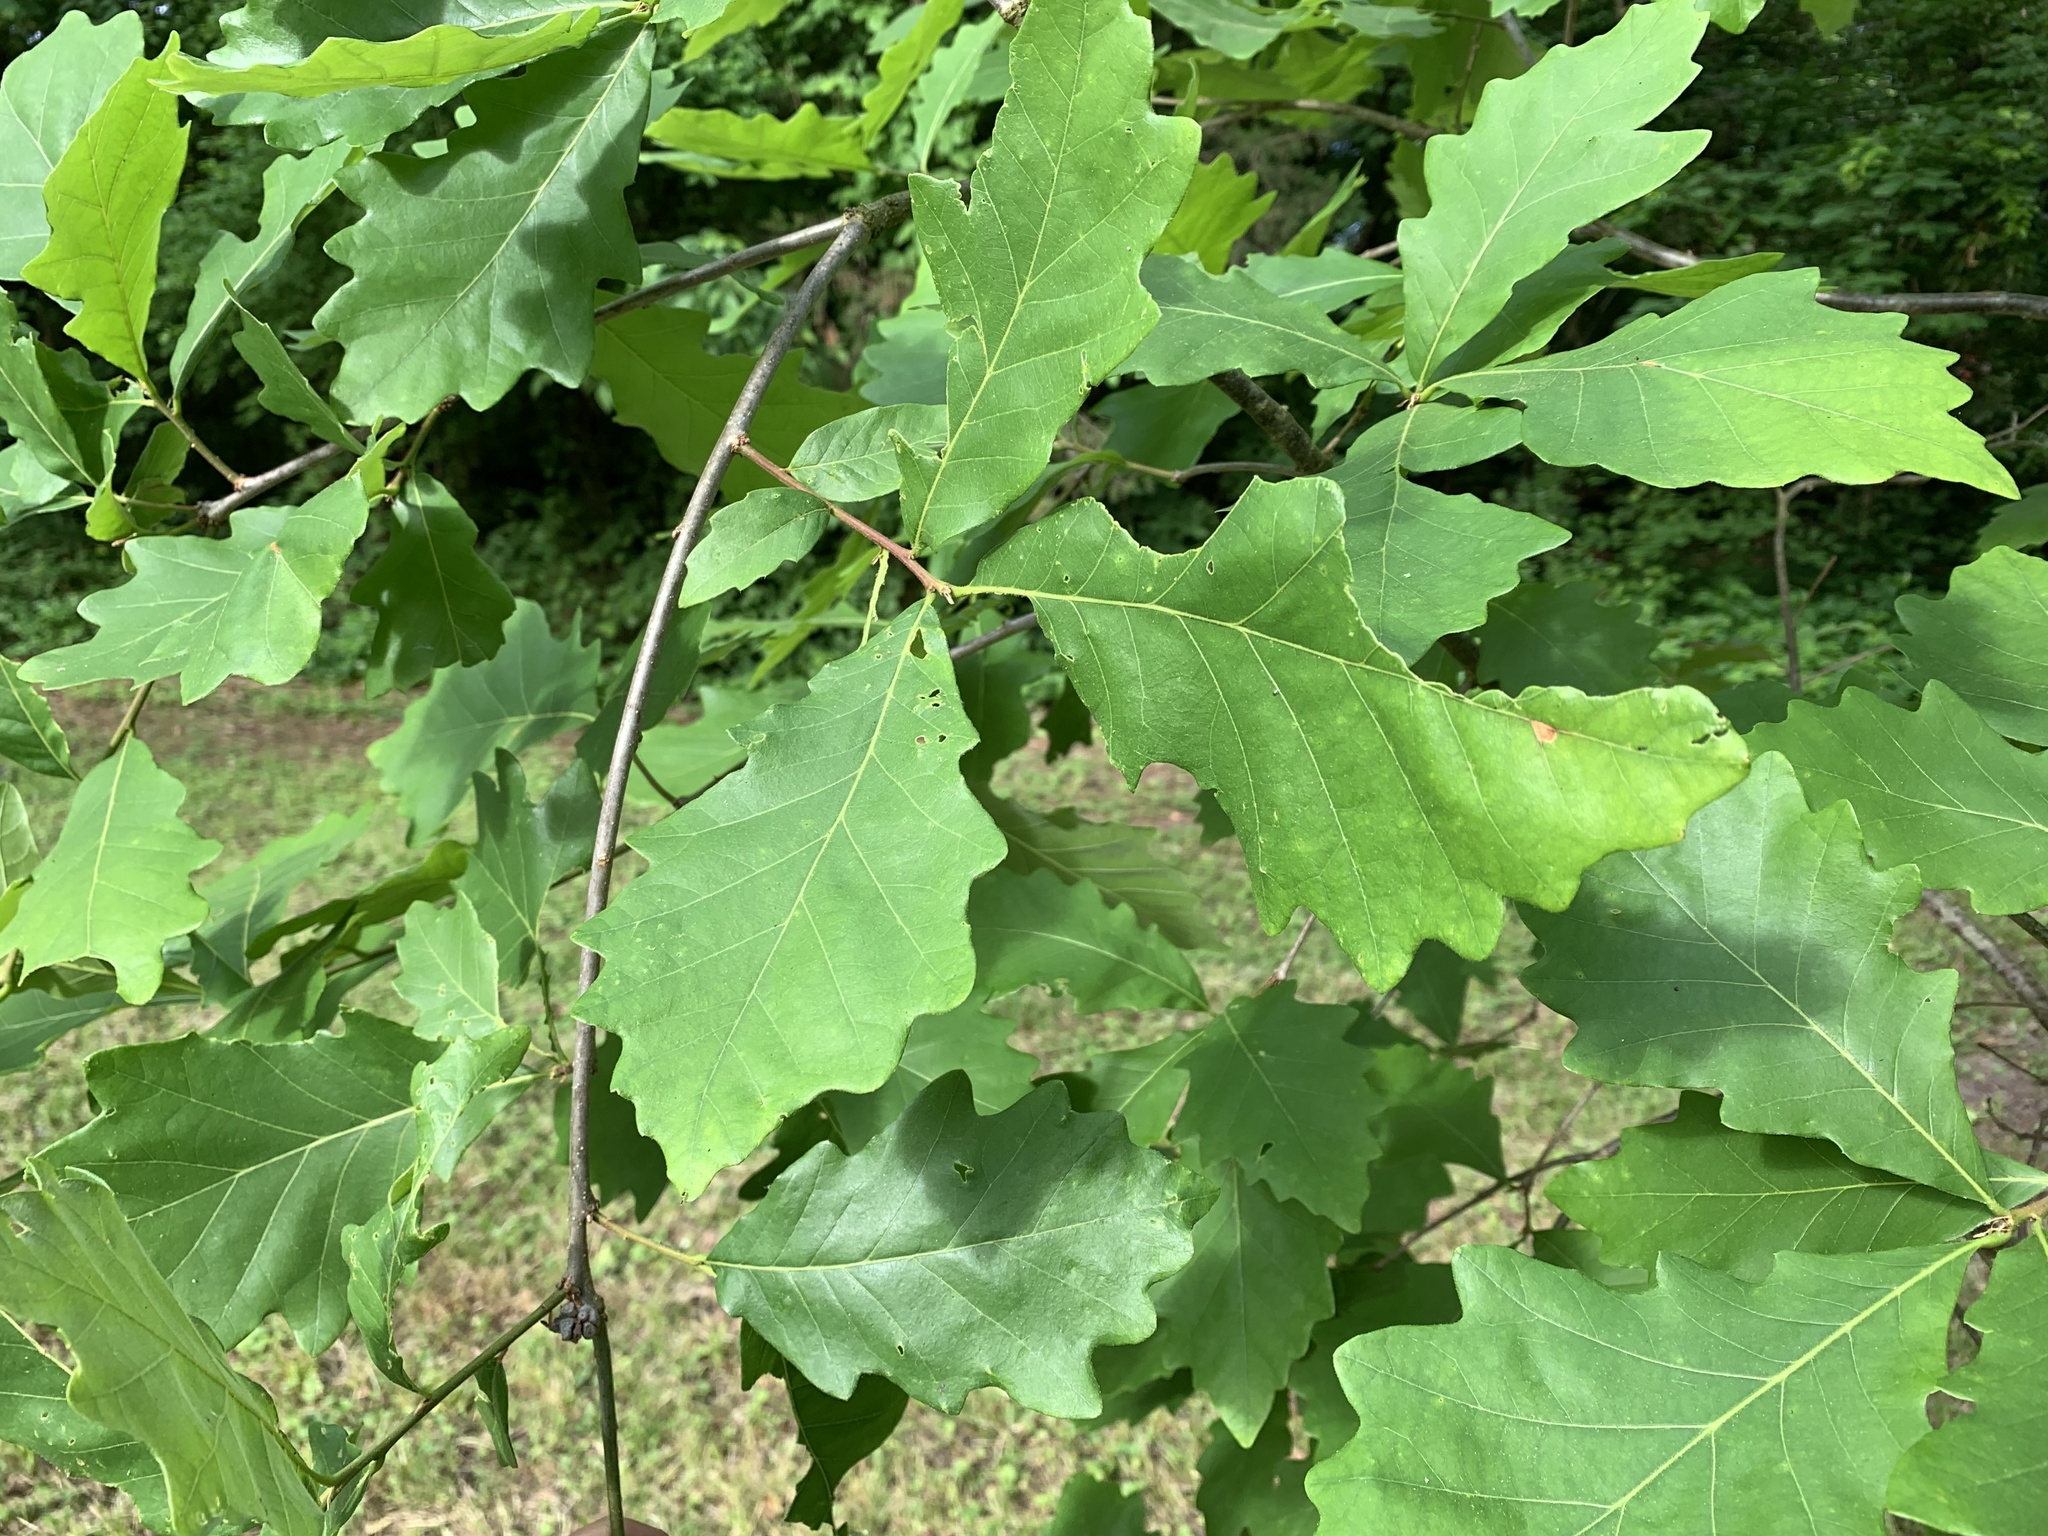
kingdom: Animalia
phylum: Arthropoda
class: Insecta
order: Hymenoptera
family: Cynipidae
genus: Andricus
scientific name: Andricus
